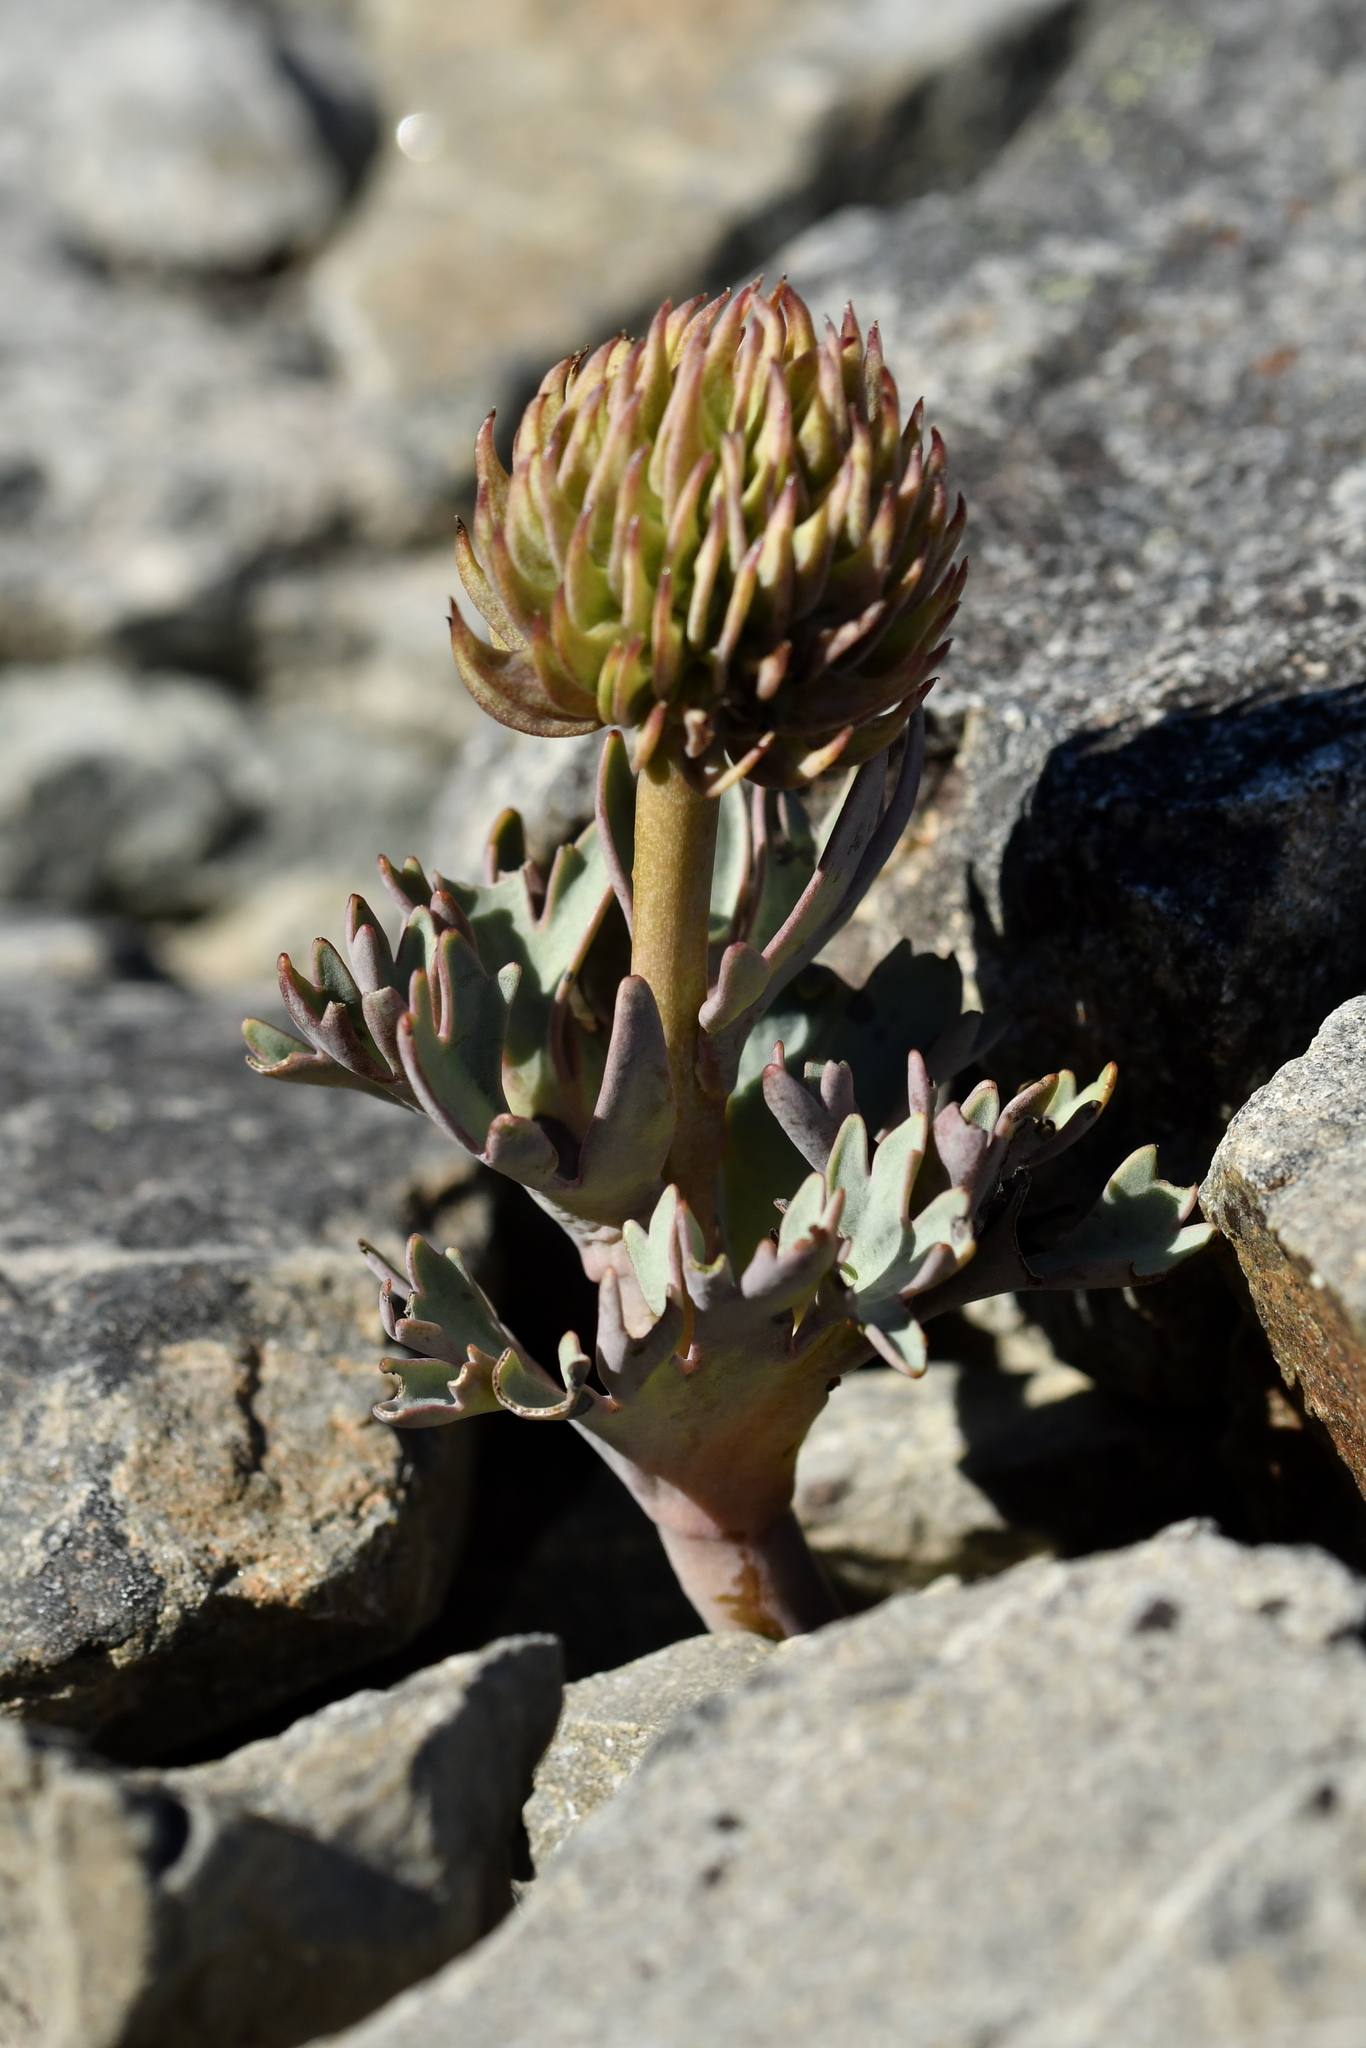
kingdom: Plantae
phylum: Tracheophyta
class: Magnoliopsida
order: Ranunculales
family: Ranunculaceae
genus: Ranunculus
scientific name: Ranunculus haastii
